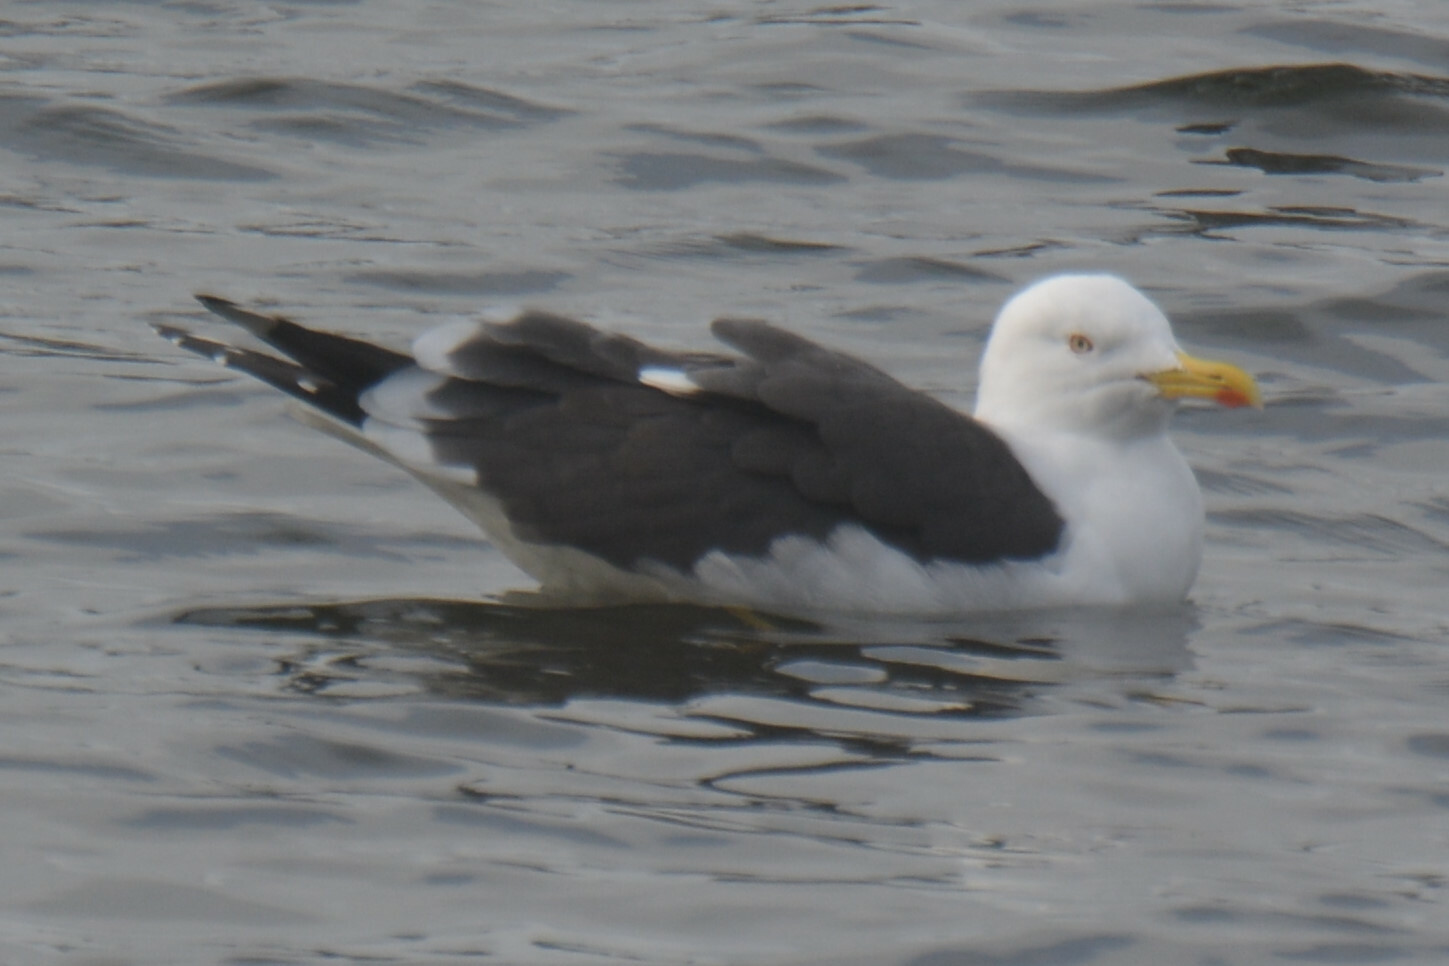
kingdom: Animalia
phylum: Chordata
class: Aves
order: Charadriiformes
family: Laridae
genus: Larus
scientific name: Larus fuscus
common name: Lesser black-backed gull
